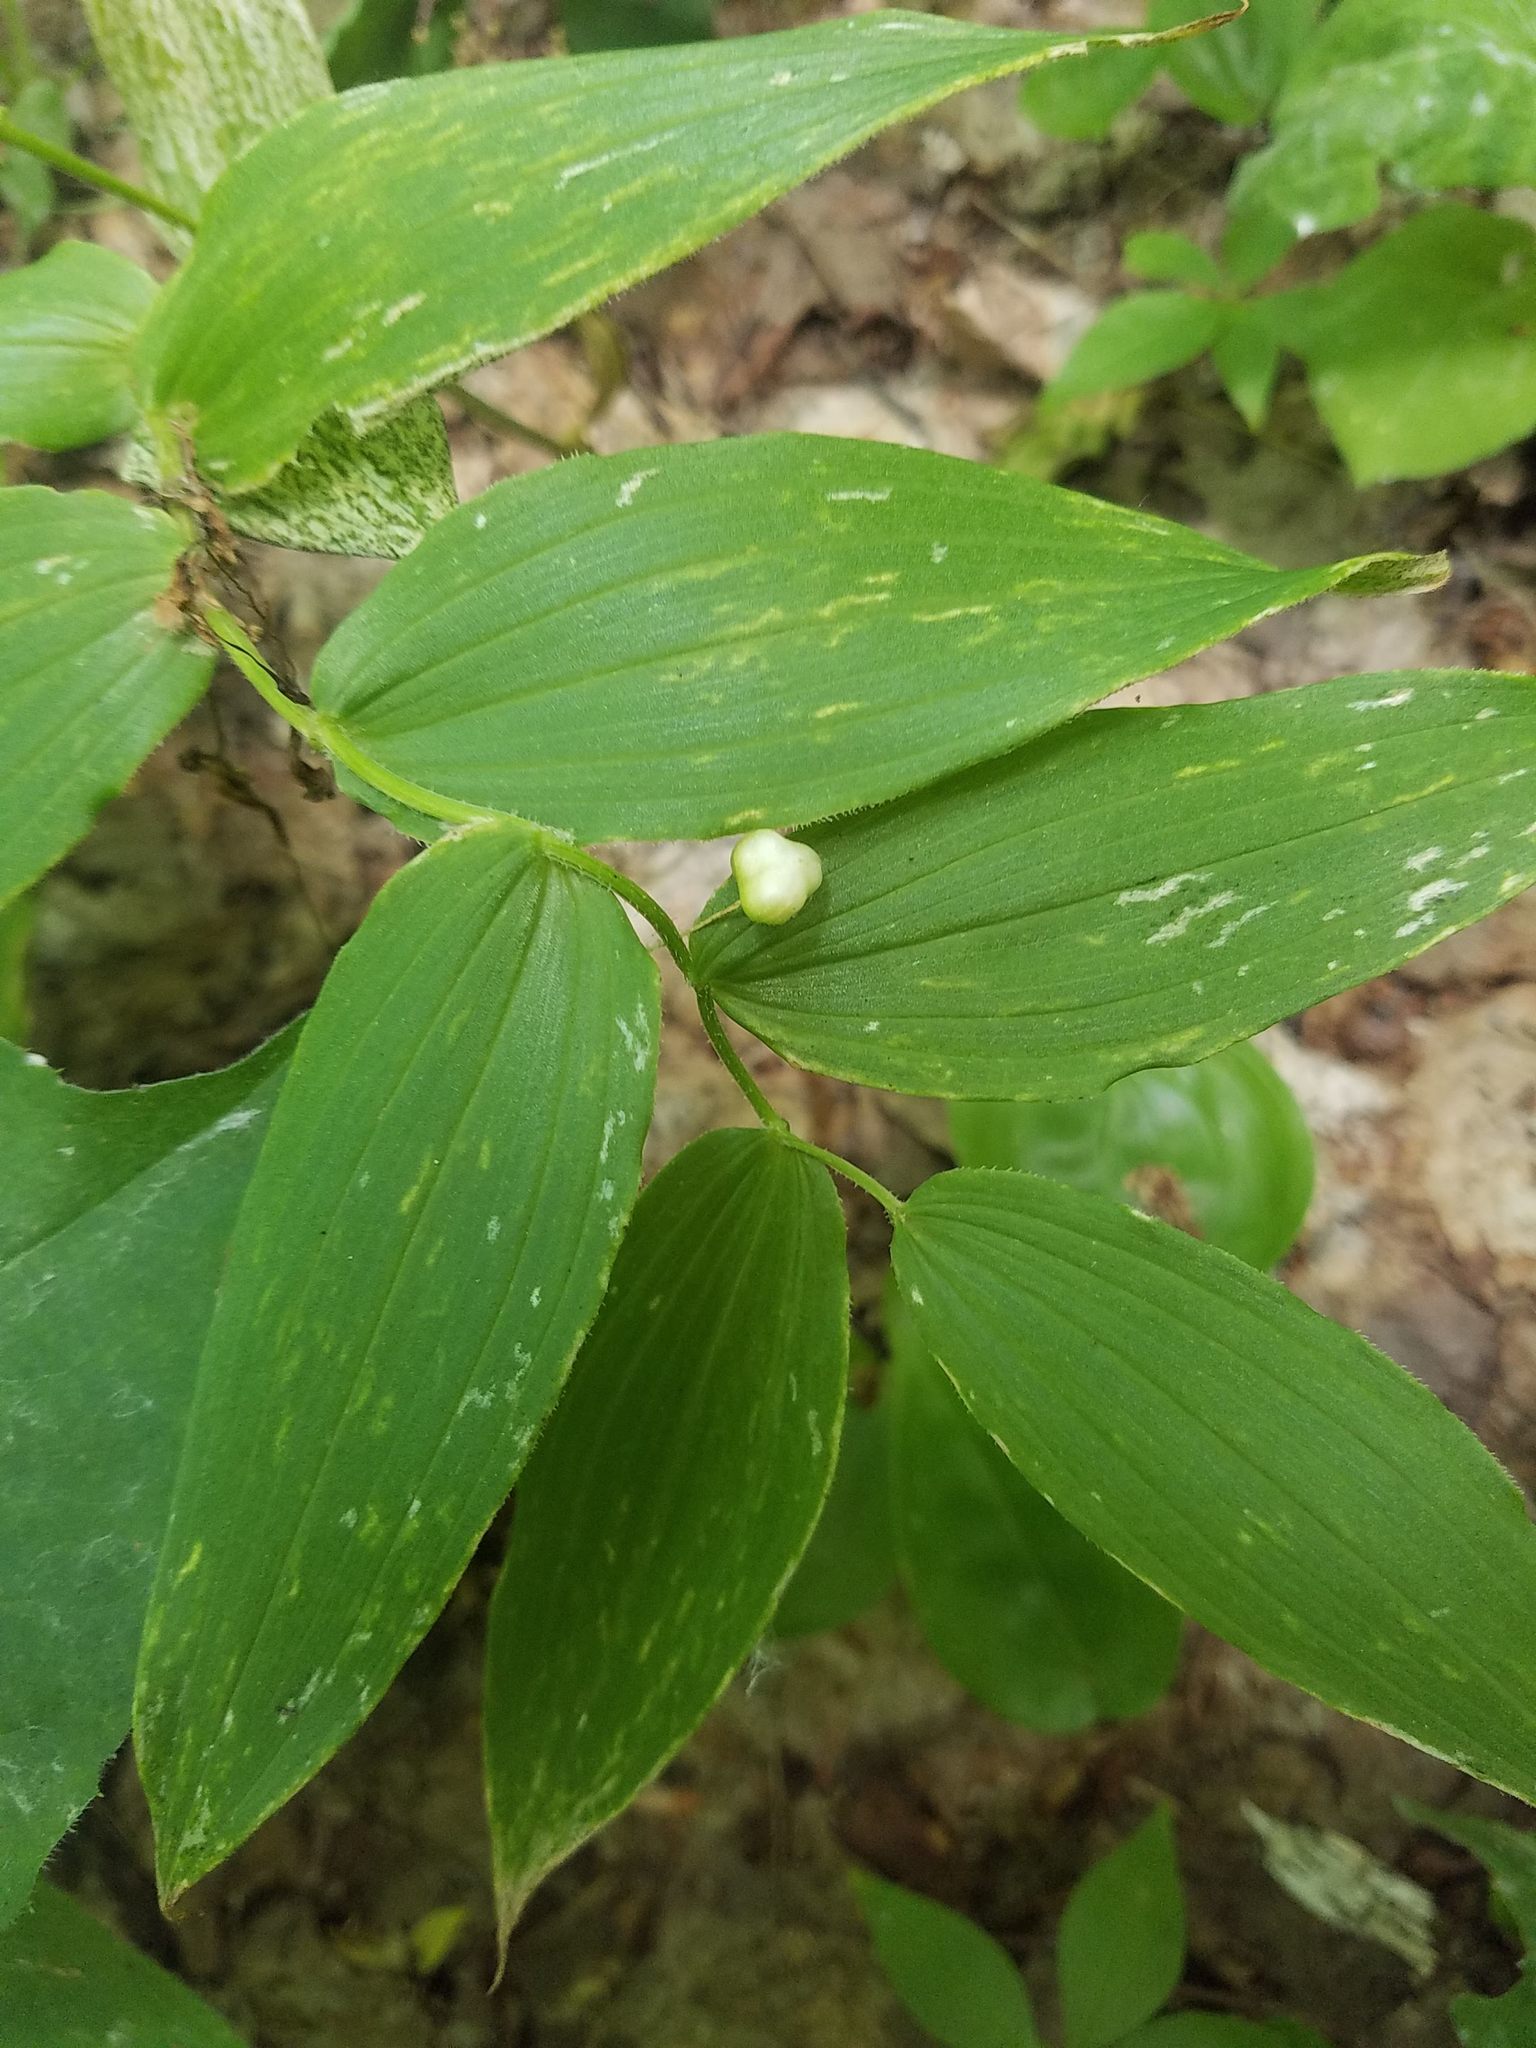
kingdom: Plantae
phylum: Tracheophyta
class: Liliopsida
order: Liliales
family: Liliaceae
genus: Streptopus
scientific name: Streptopus lanceolatus
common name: Rose mandarin
